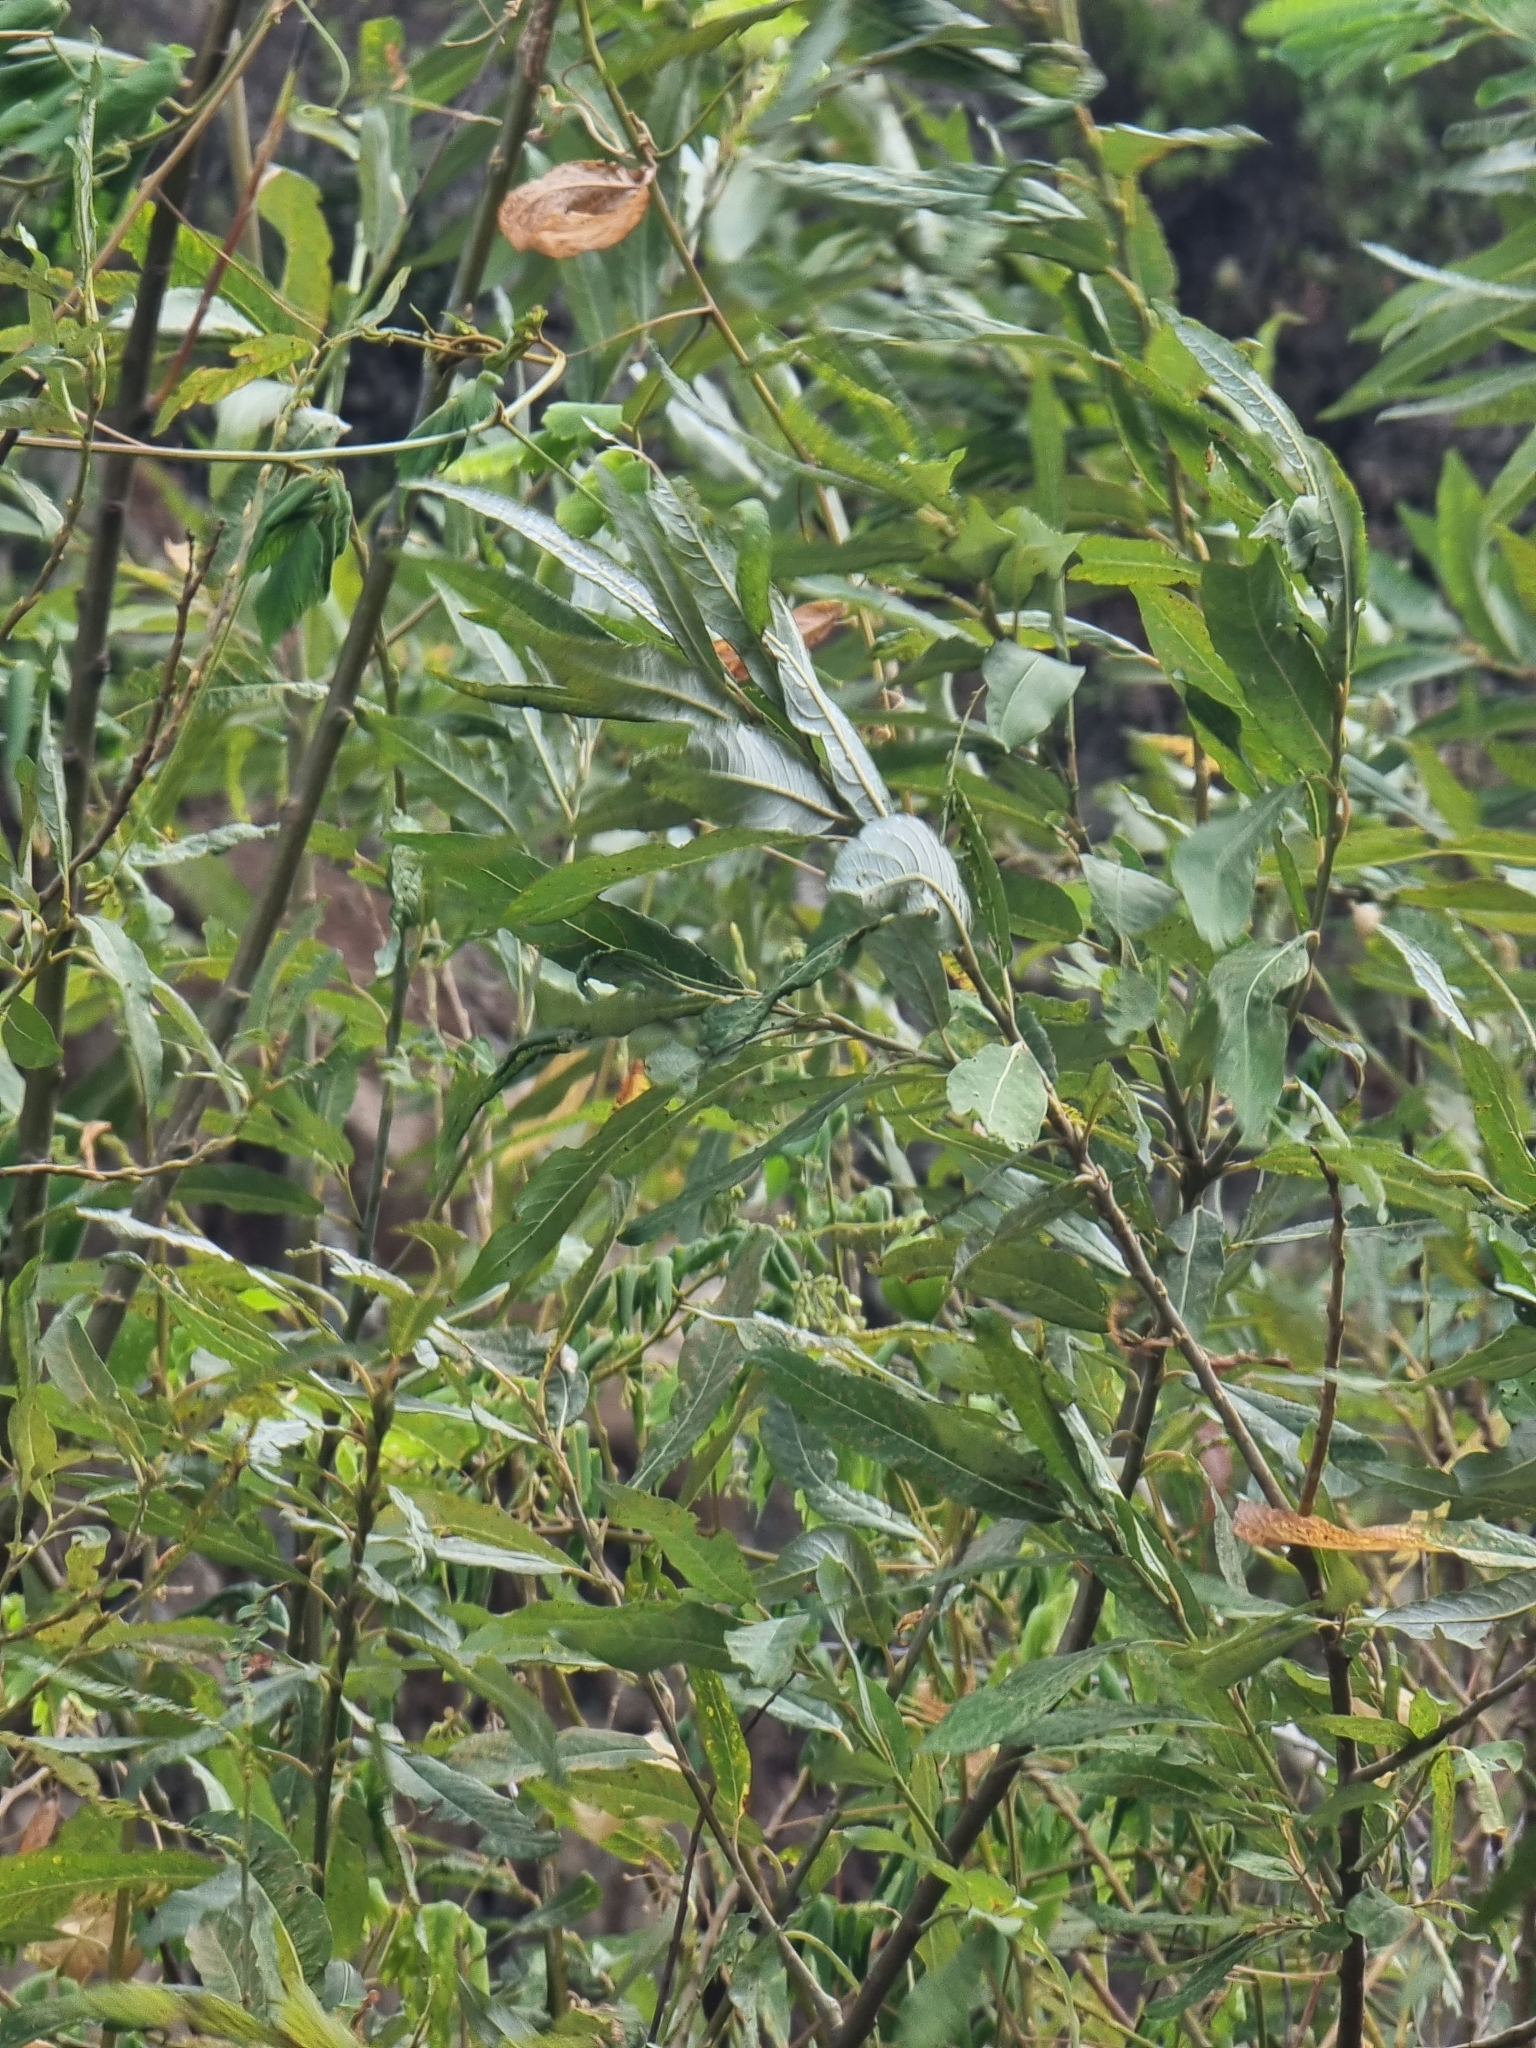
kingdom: Plantae
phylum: Tracheophyta
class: Magnoliopsida
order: Malpighiales
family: Salicaceae
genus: Salix
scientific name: Salix canariensis
